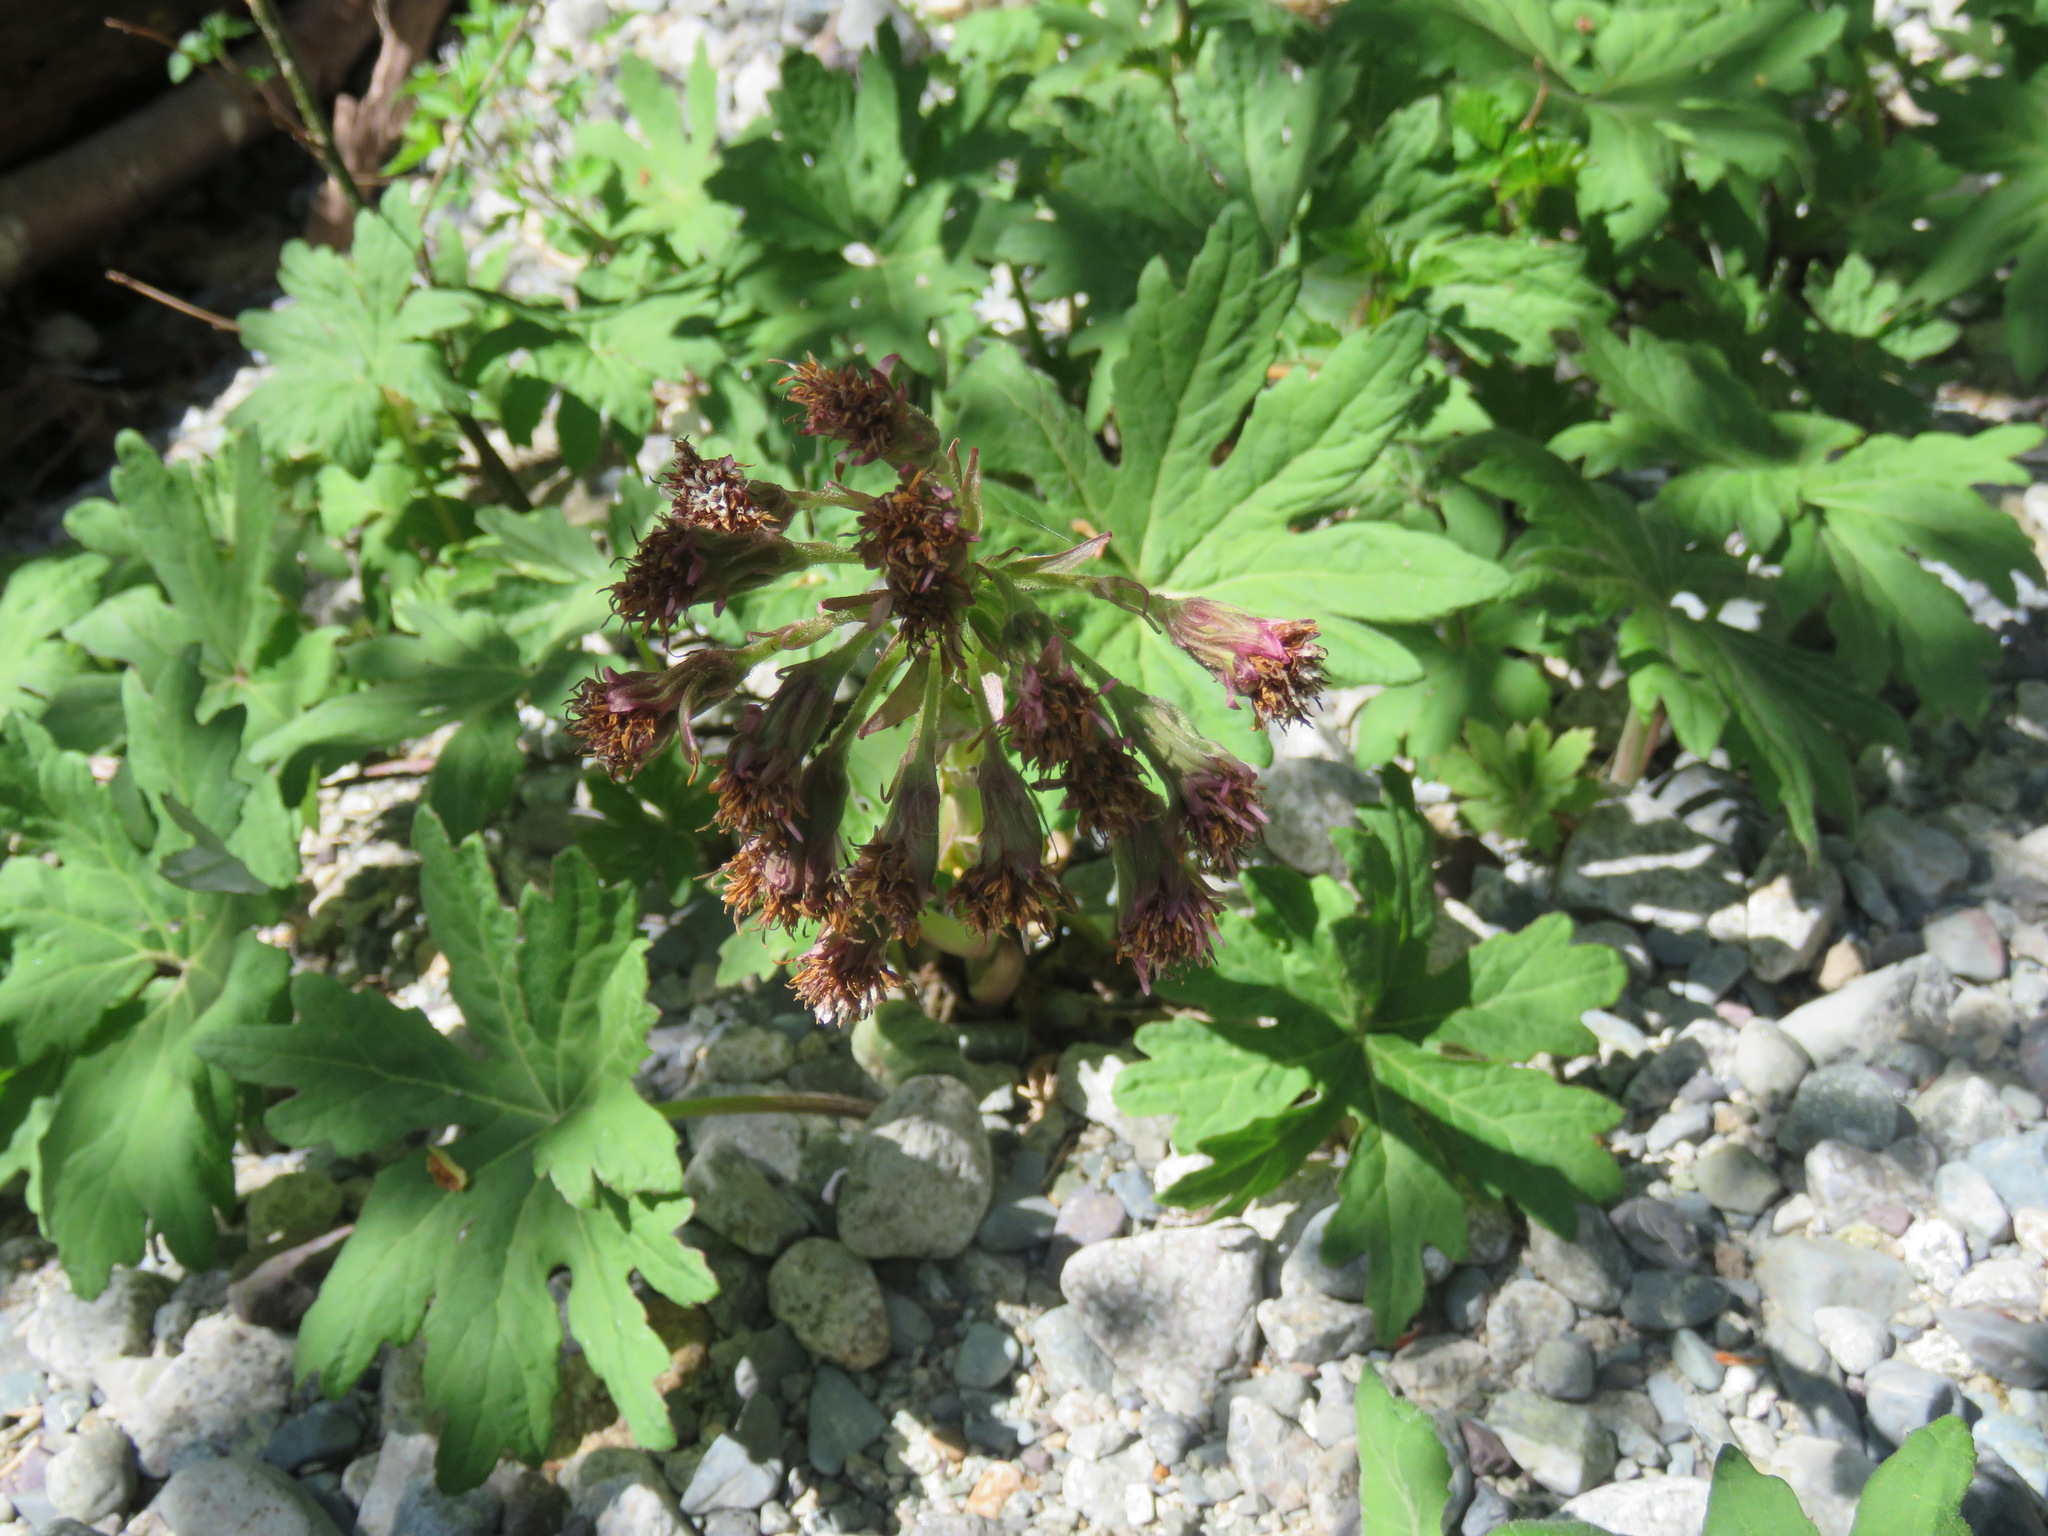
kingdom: Plantae
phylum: Tracheophyta
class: Magnoliopsida
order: Asterales
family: Asteraceae
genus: Petasites
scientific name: Petasites frigidus
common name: Arctic butterbur
